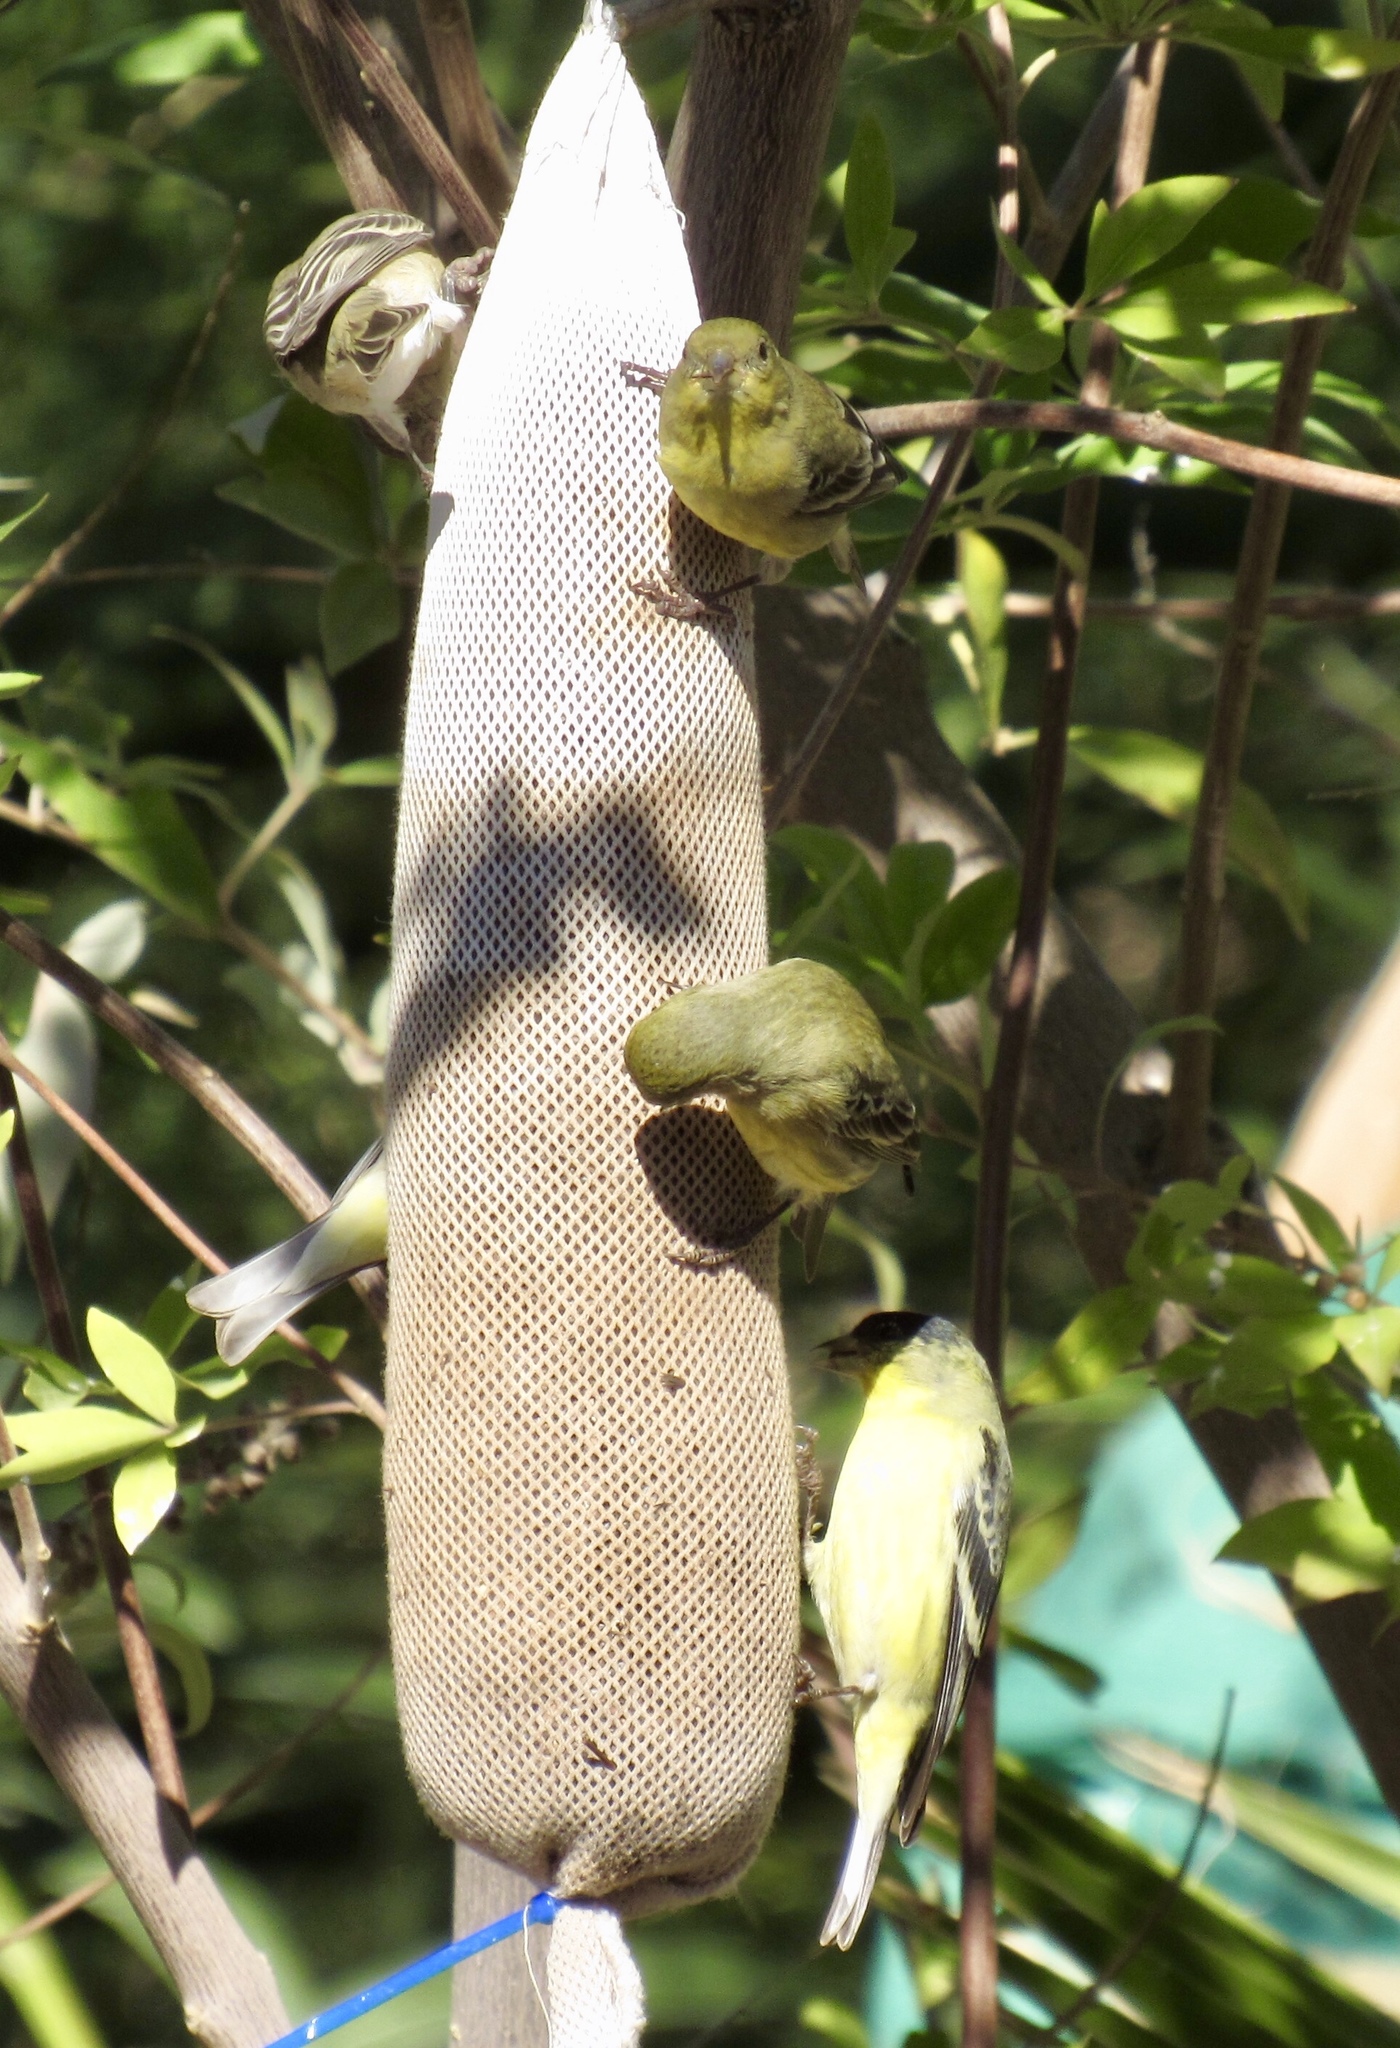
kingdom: Animalia
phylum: Chordata
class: Aves
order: Passeriformes
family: Fringillidae
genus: Spinus
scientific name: Spinus psaltria
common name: Lesser goldfinch
